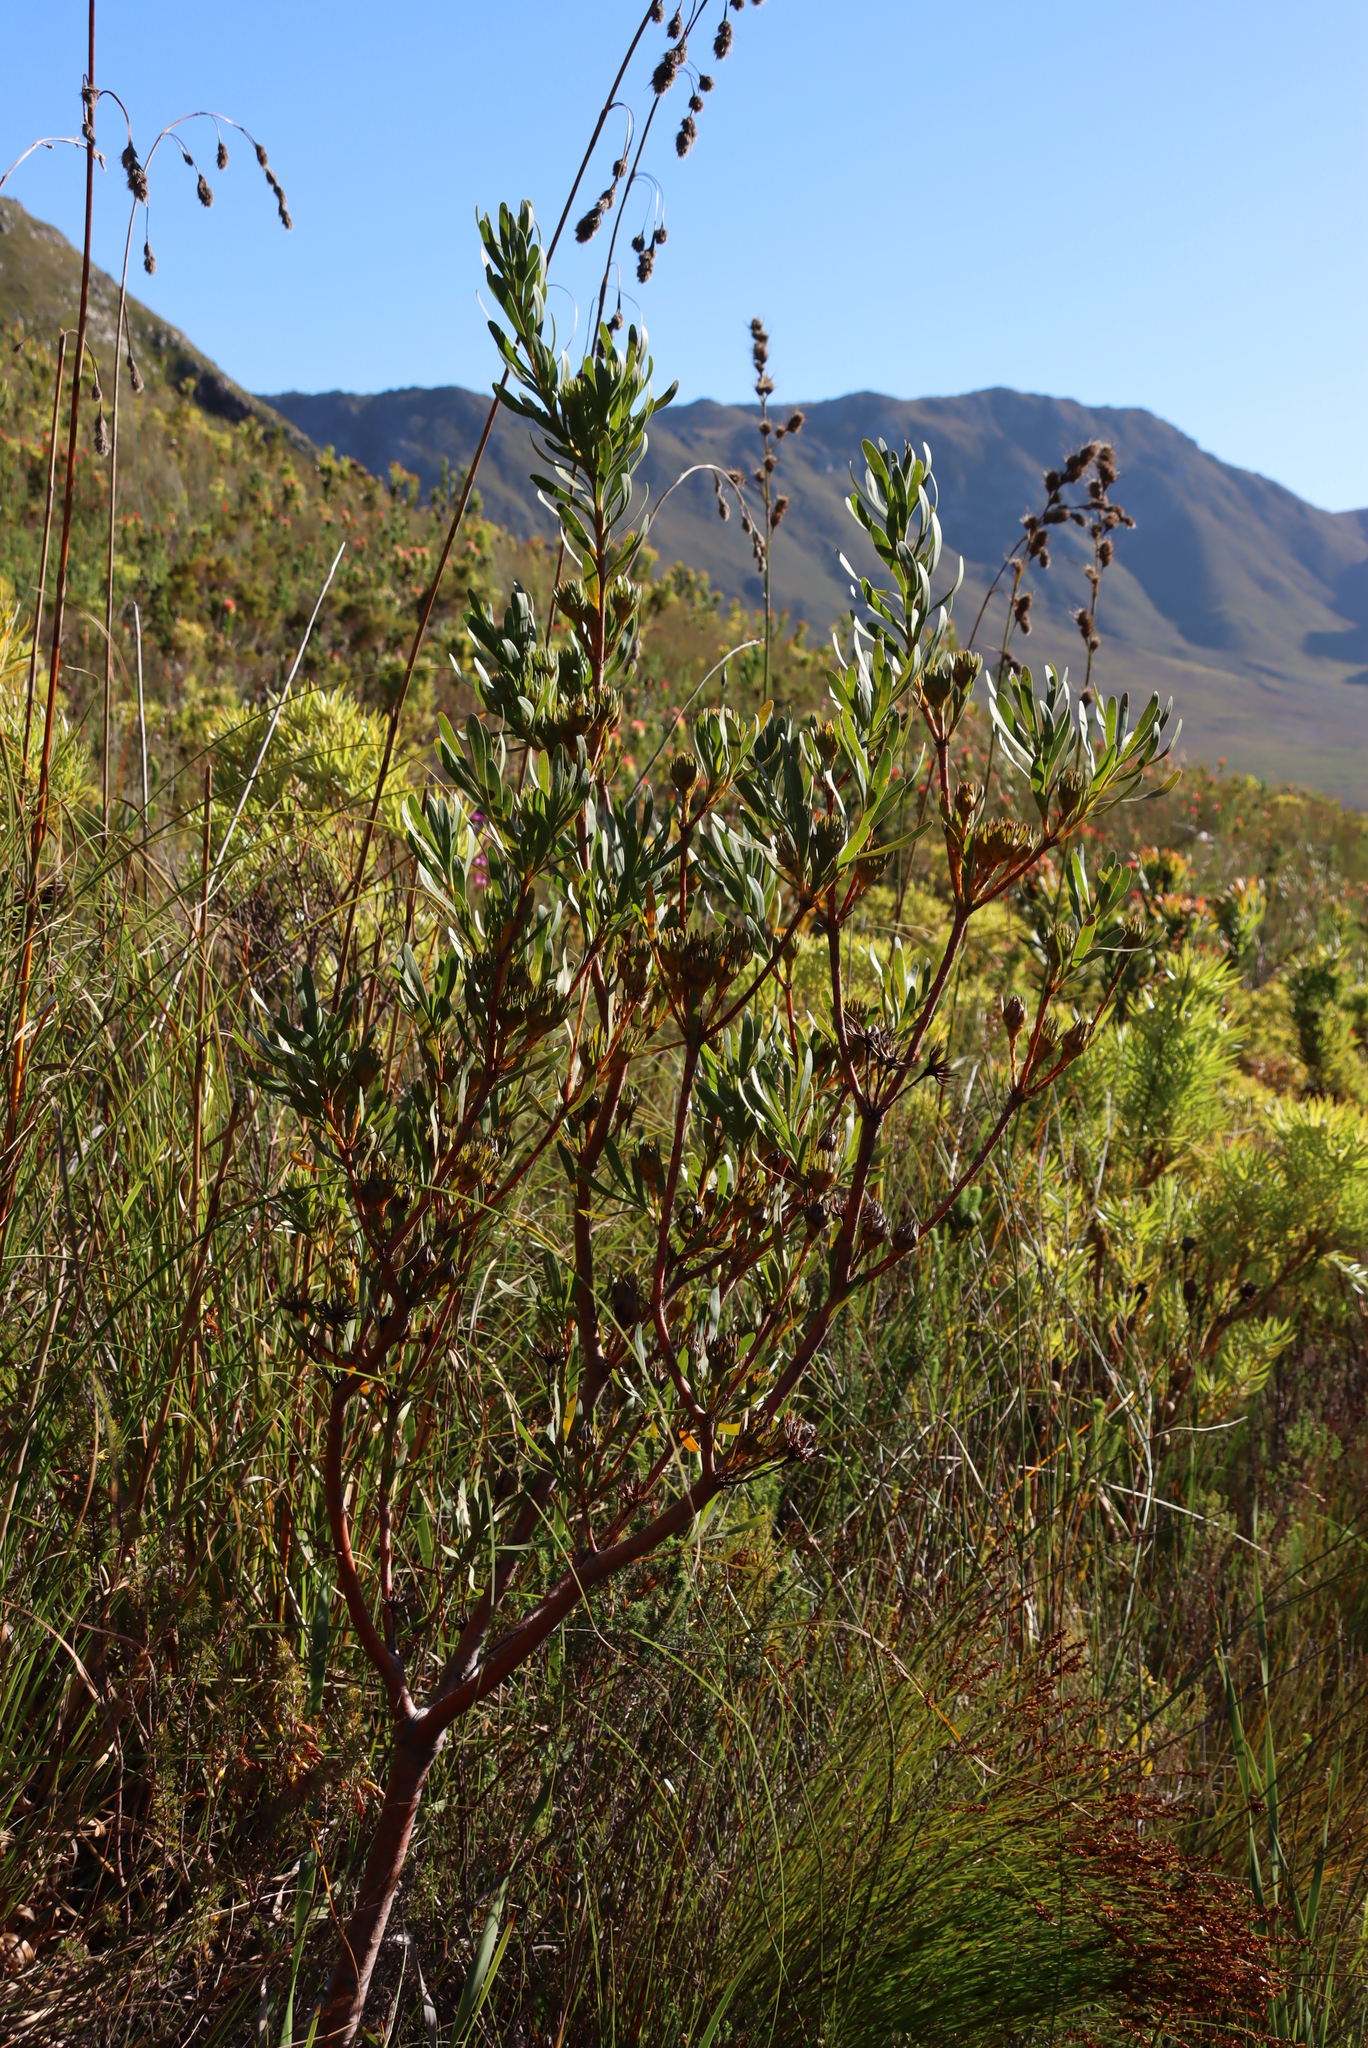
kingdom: Plantae
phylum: Tracheophyta
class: Magnoliopsida
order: Proteales
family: Proteaceae
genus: Aulax
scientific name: Aulax umbellata
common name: Broad-leaf featherbush
